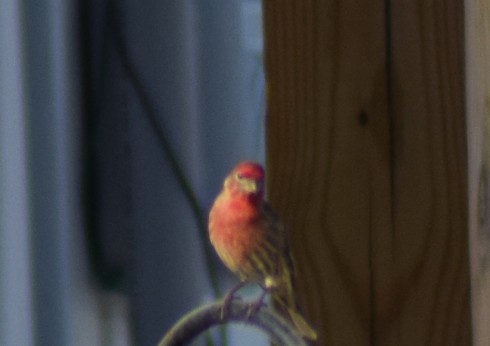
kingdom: Animalia
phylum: Chordata
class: Aves
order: Passeriformes
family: Fringillidae
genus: Haemorhous
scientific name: Haemorhous mexicanus
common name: House finch
